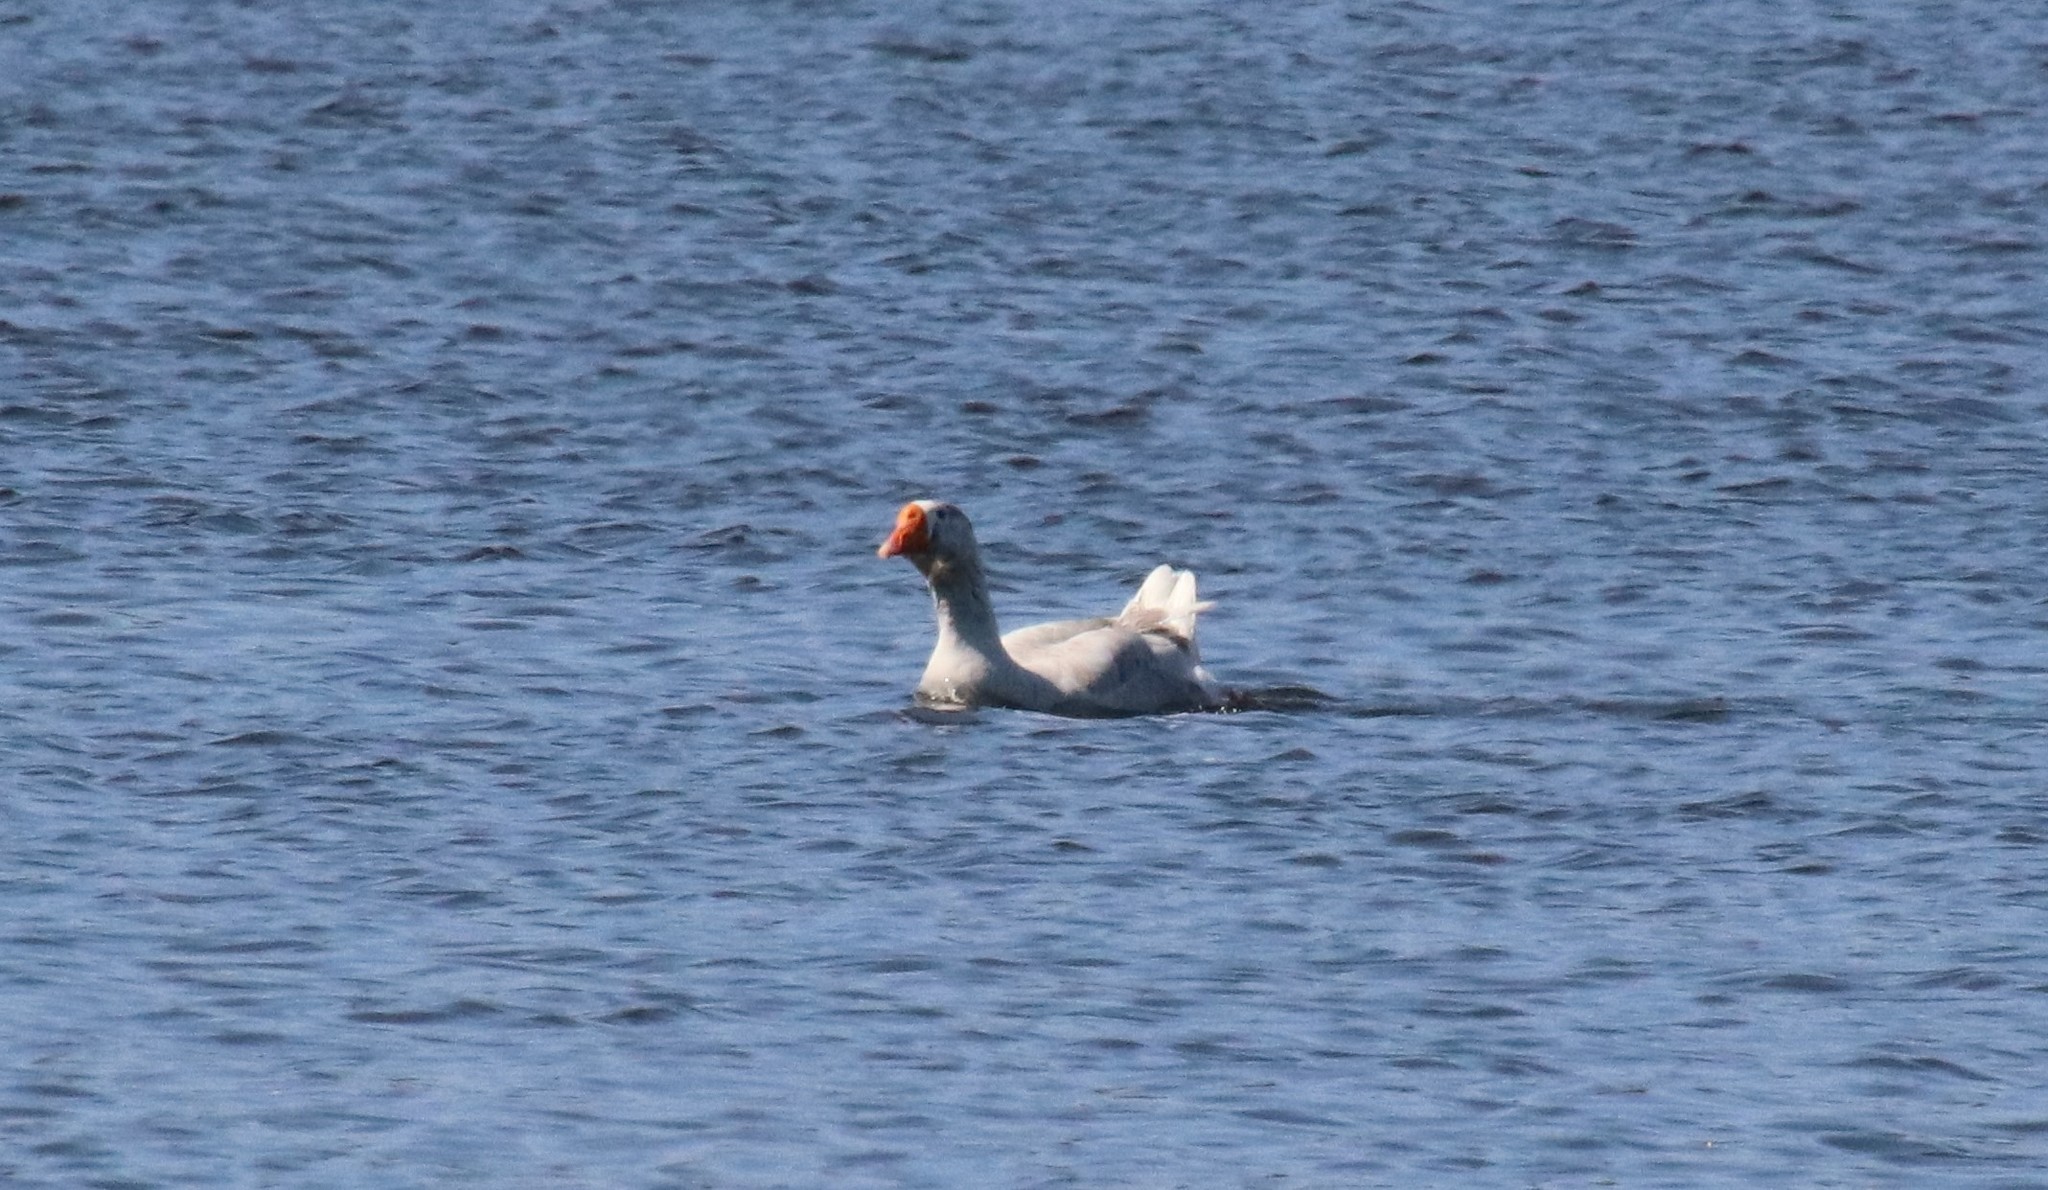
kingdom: Animalia
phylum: Chordata
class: Aves
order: Anseriformes
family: Anatidae
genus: Anser
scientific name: Anser
